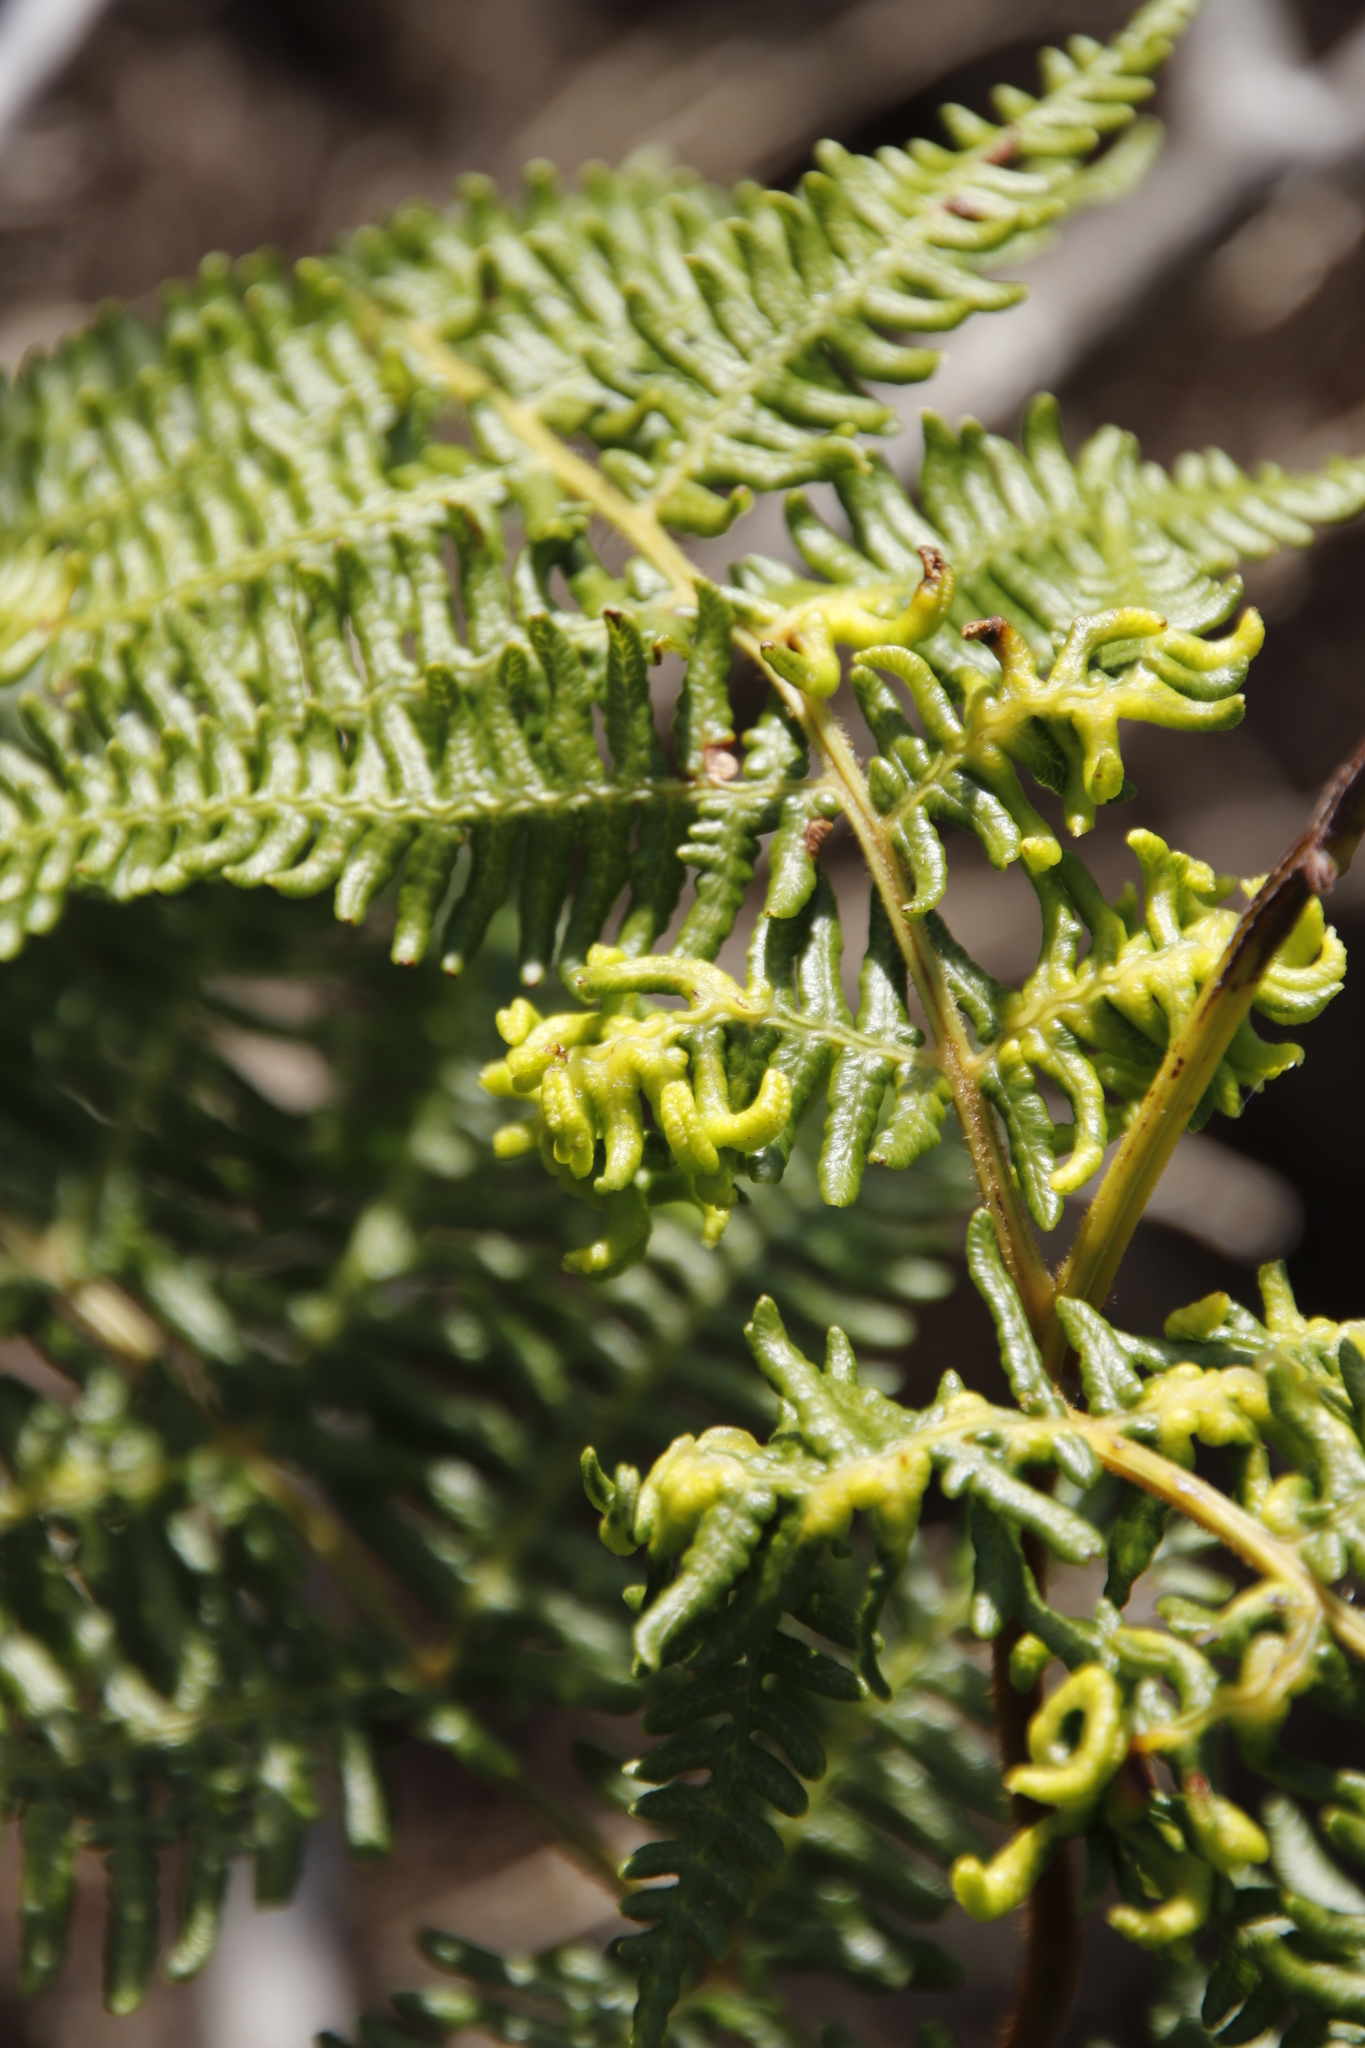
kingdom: Plantae
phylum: Tracheophyta
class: Polypodiopsida
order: Polypodiales
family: Dennstaedtiaceae
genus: Pteridium
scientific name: Pteridium aquilinum
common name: Bracken
